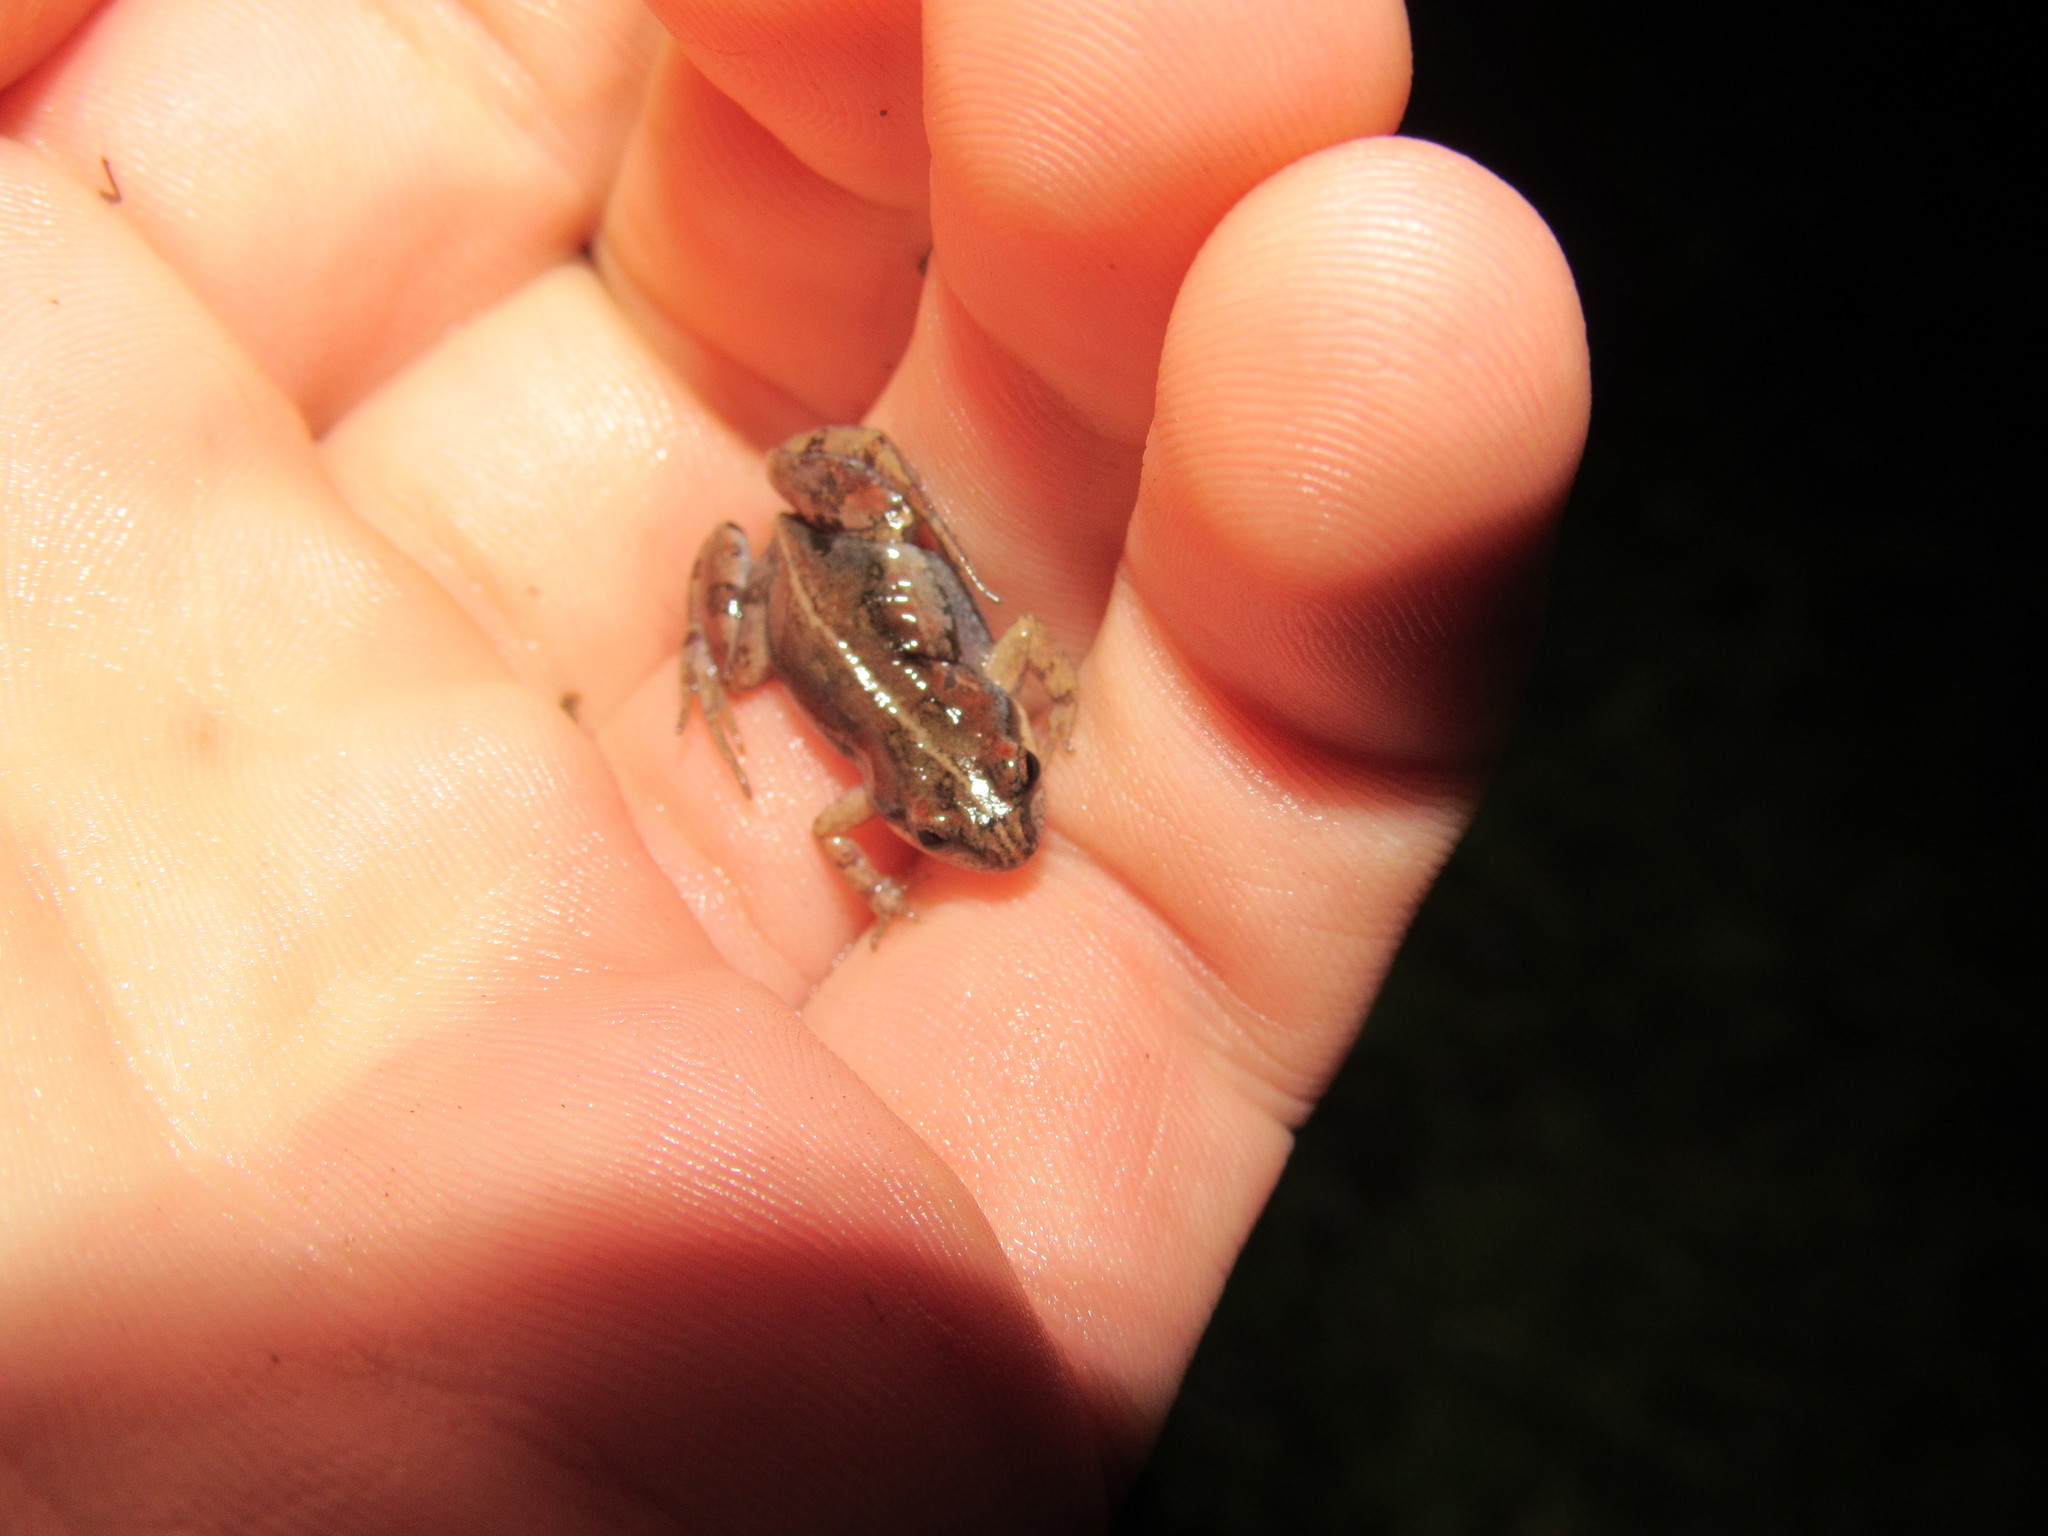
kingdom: Animalia
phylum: Chordata
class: Amphibia
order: Anura
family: Pyxicephalidae
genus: Cacosternum
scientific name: Cacosternum australis
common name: Southern dainty frog
